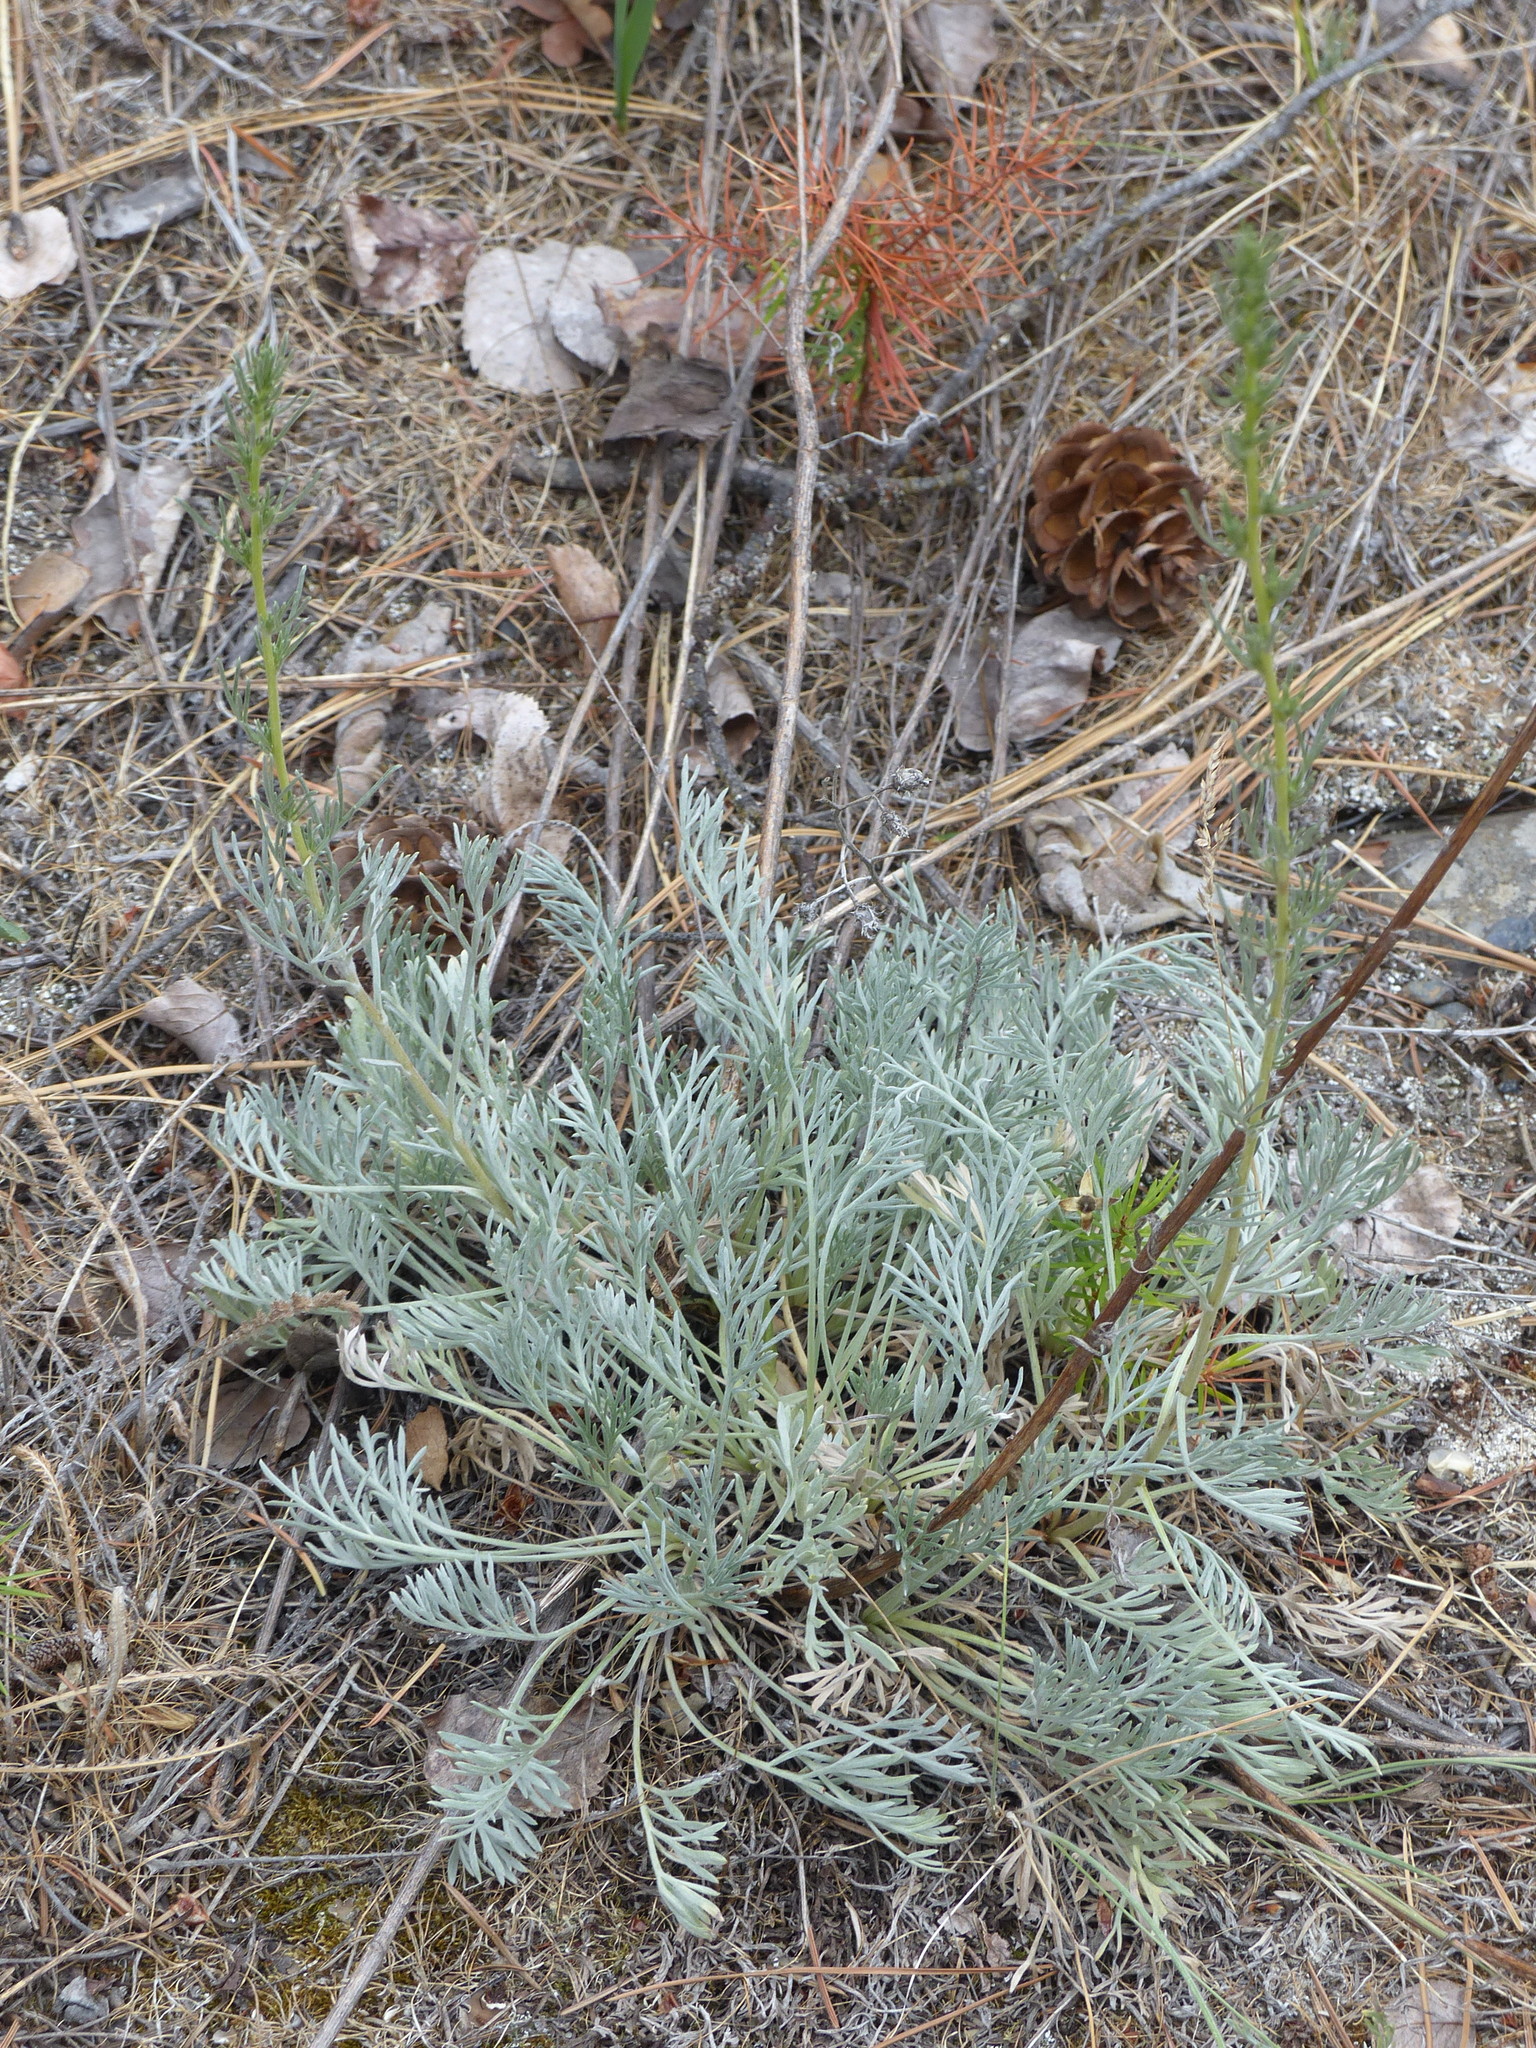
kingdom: Plantae
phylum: Tracheophyta
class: Magnoliopsida
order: Asterales
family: Asteraceae
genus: Artemisia
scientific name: Artemisia campestris
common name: Field wormwood
